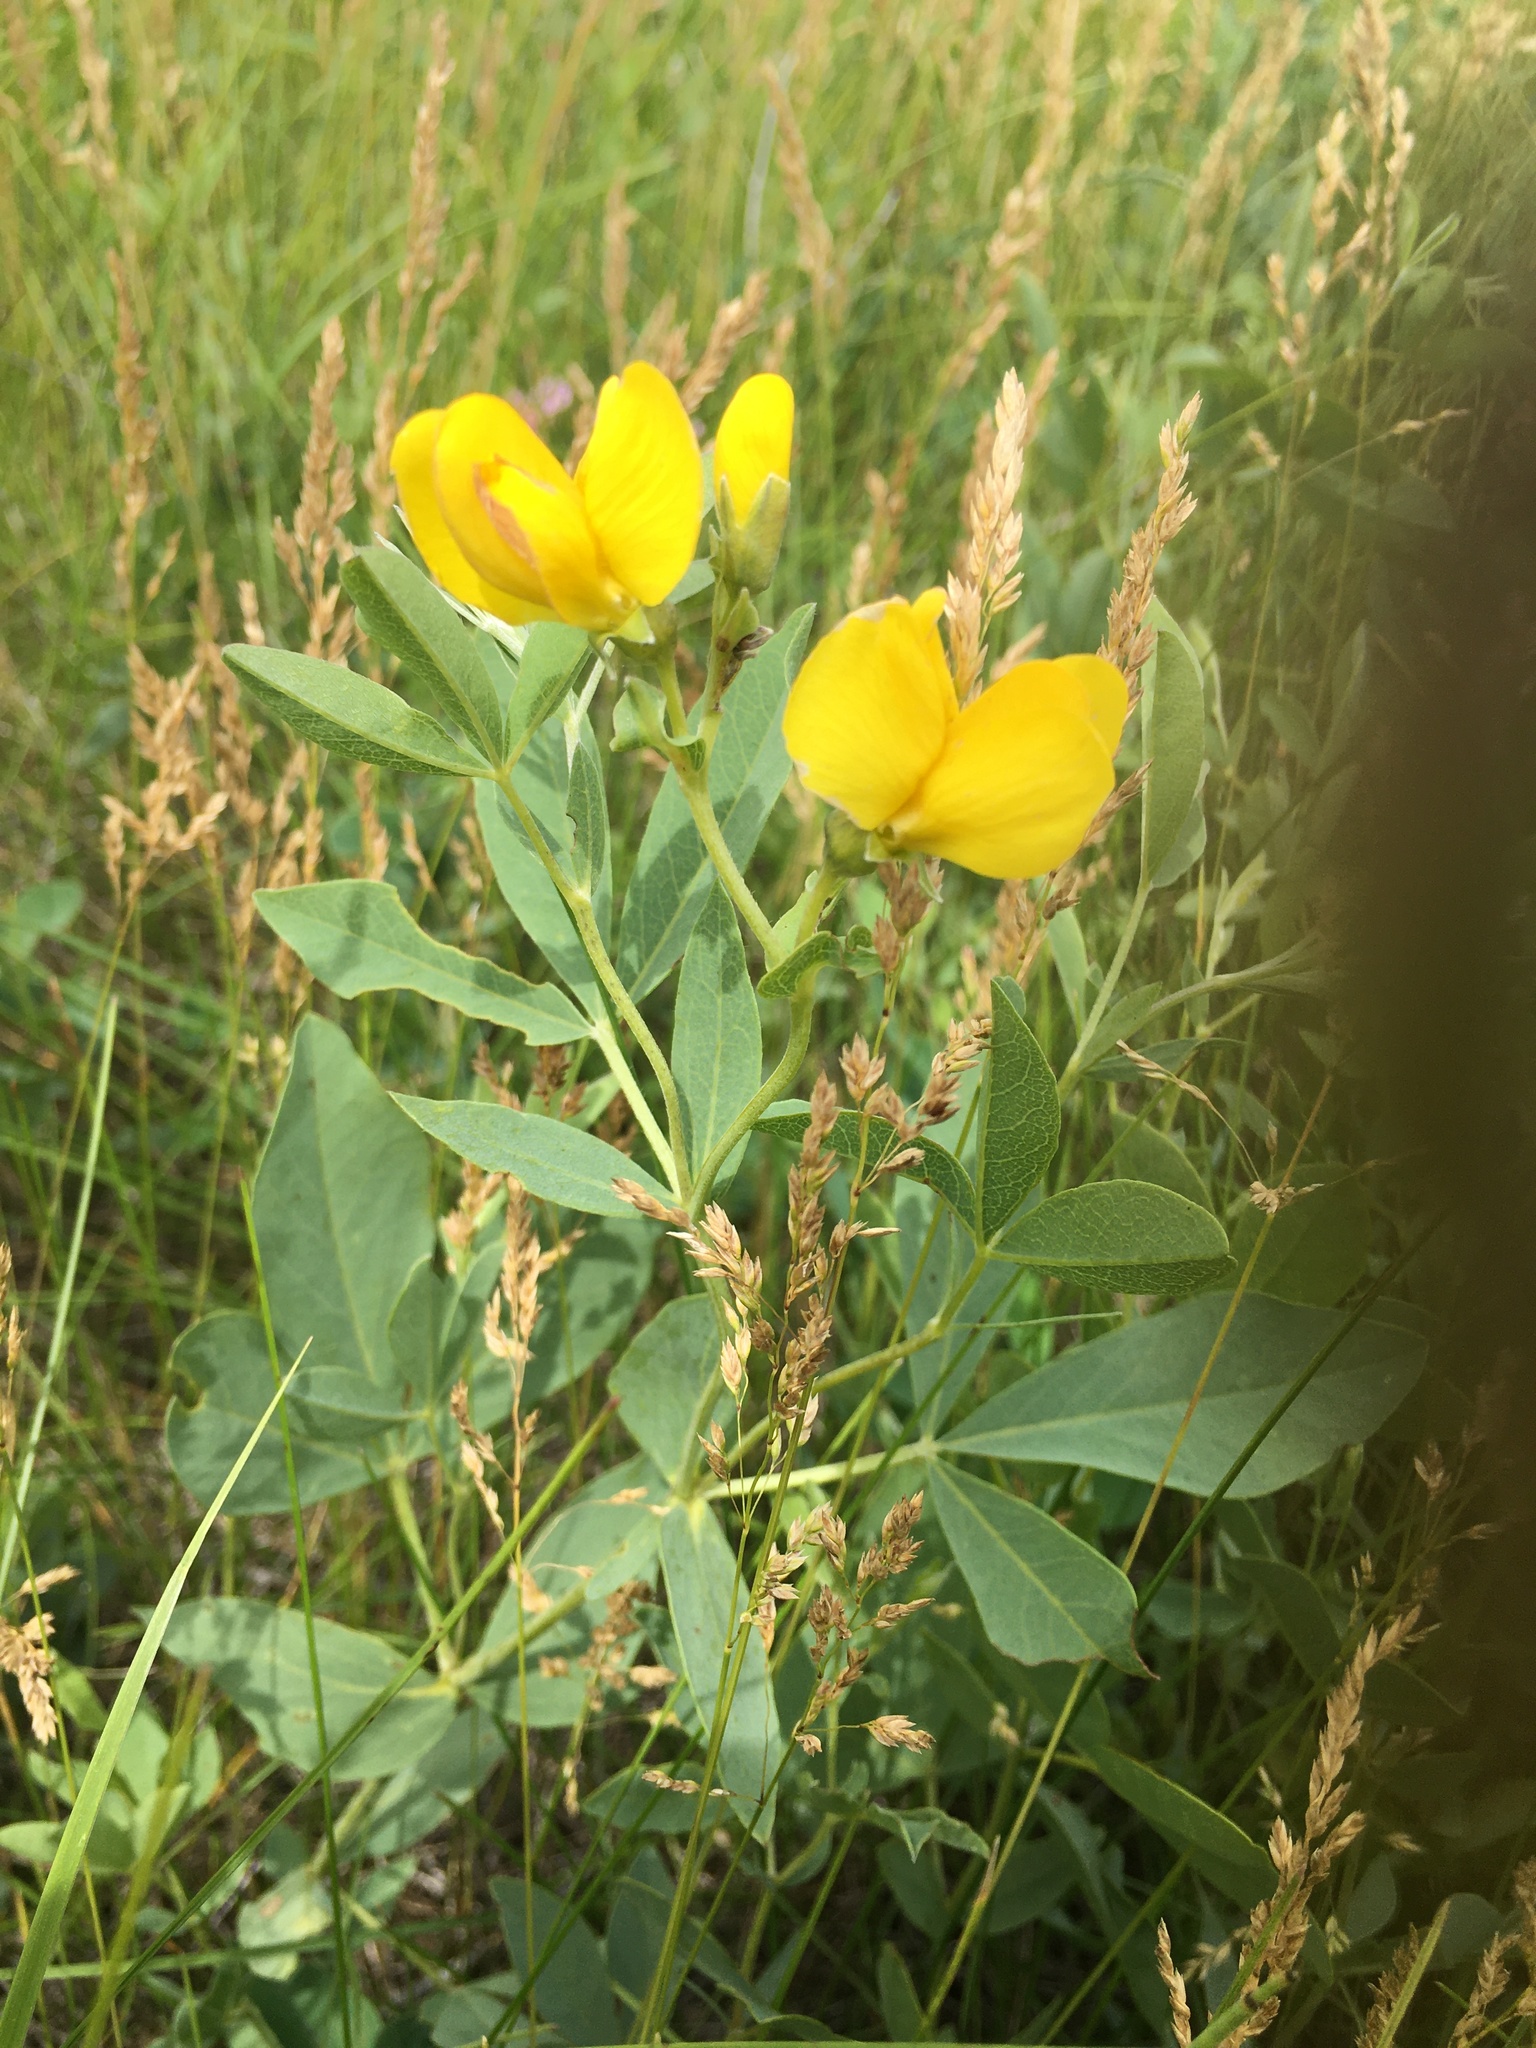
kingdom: Plantae
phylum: Tracheophyta
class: Magnoliopsida
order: Fabales
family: Fabaceae
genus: Thermopsis
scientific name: Thermopsis rhombifolia
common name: Circle-pod-pea
